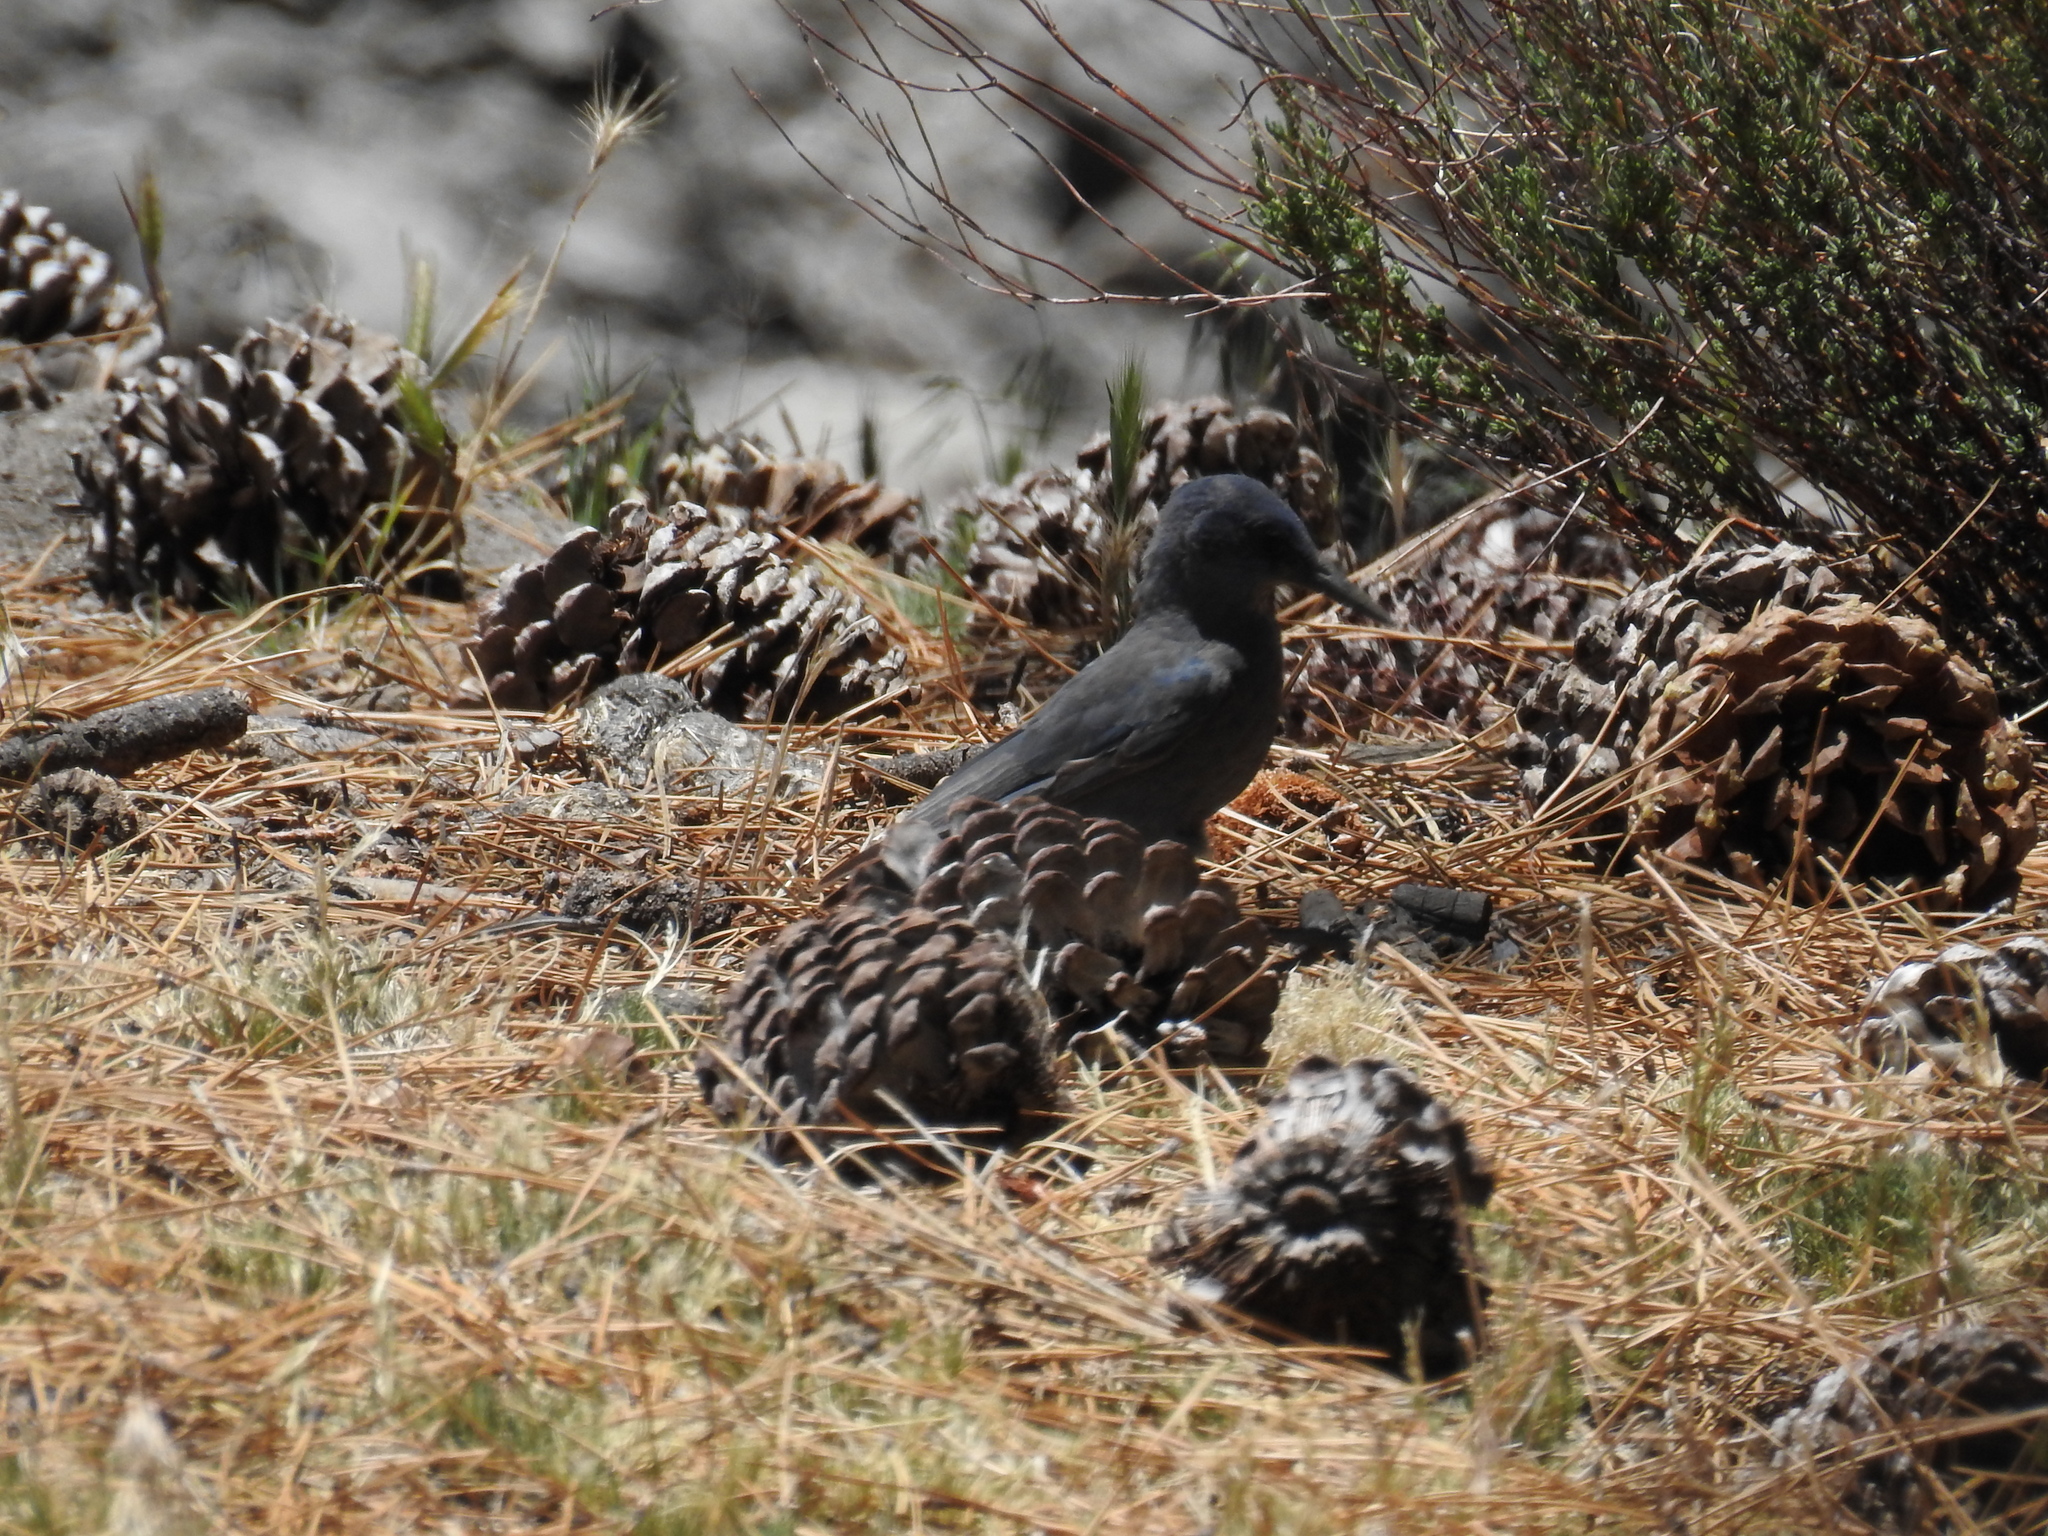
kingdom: Animalia
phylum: Chordata
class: Aves
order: Passeriformes
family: Corvidae
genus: Gymnorhinus
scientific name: Gymnorhinus cyanocephalus
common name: Pinyon jay
